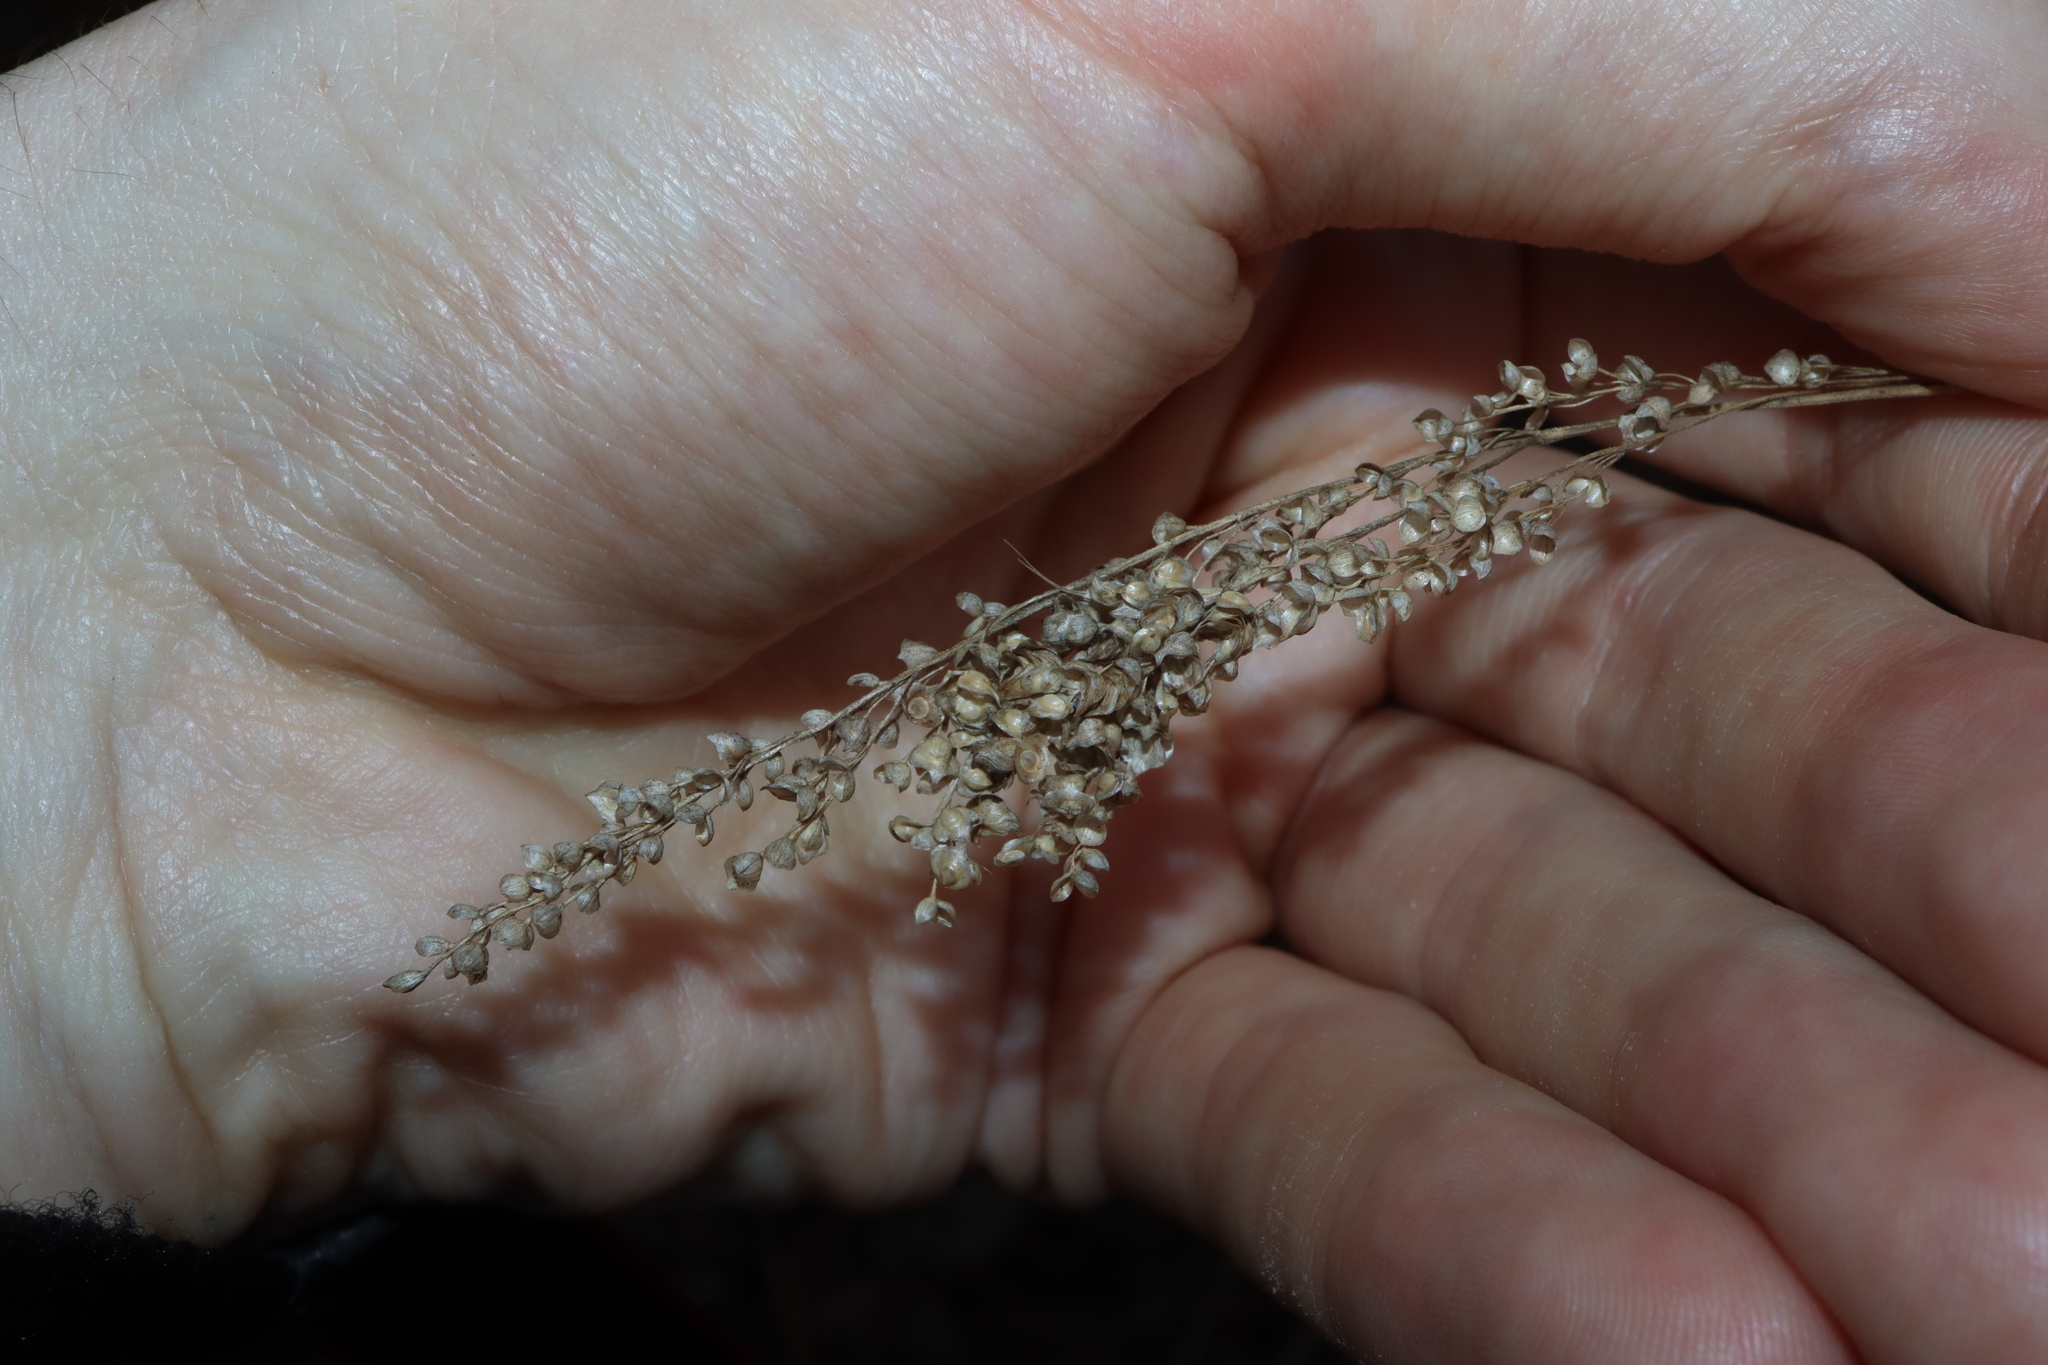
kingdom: Plantae
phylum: Tracheophyta
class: Liliopsida
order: Poales
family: Poaceae
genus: Chascolytrum
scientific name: Chascolytrum subaristatum
